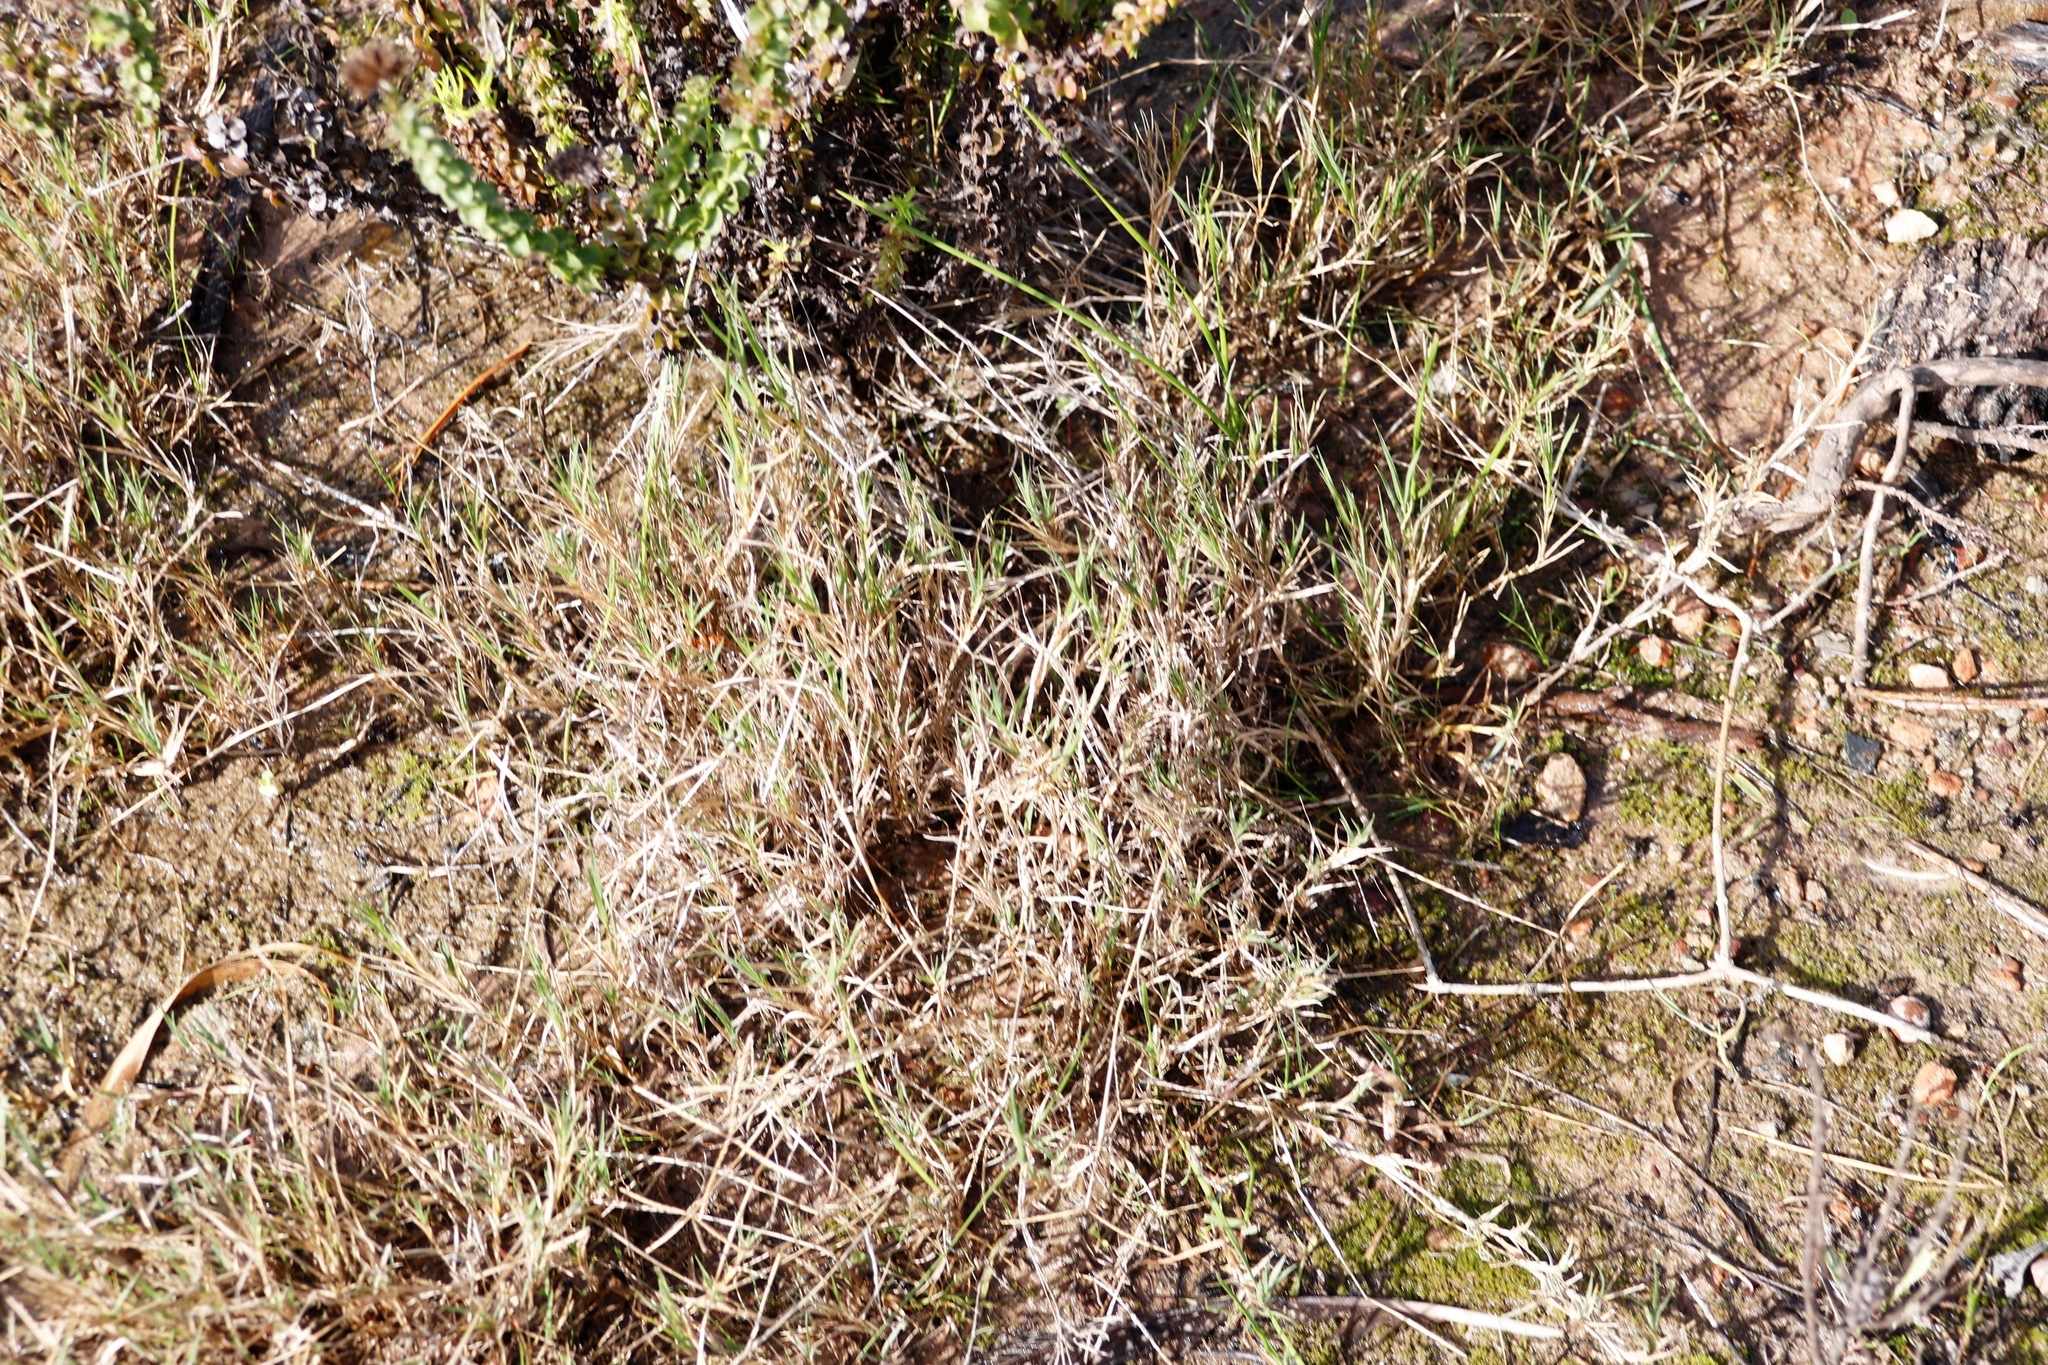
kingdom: Plantae
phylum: Tracheophyta
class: Liliopsida
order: Poales
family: Poaceae
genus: Cynodon
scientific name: Cynodon dactylon
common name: Bermuda grass
